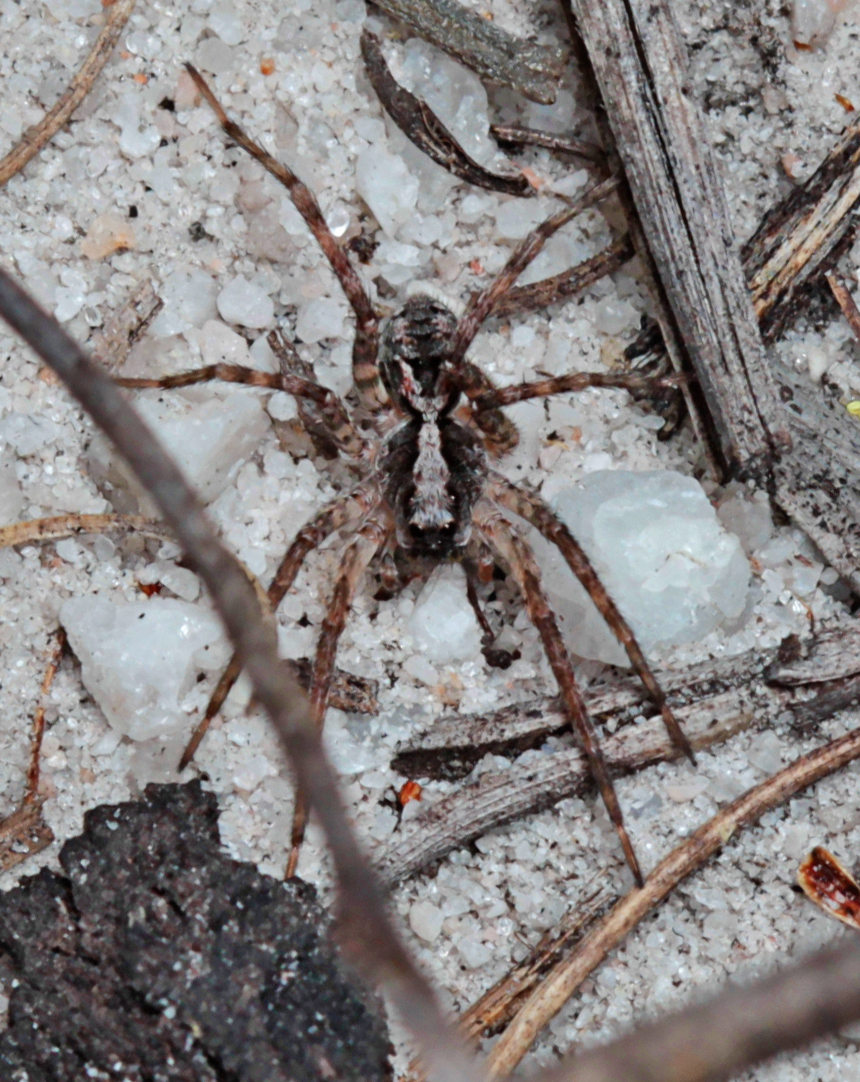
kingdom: Animalia
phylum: Arthropoda
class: Arachnida
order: Araneae
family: Lycosidae
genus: Venator
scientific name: Venator spenceri
